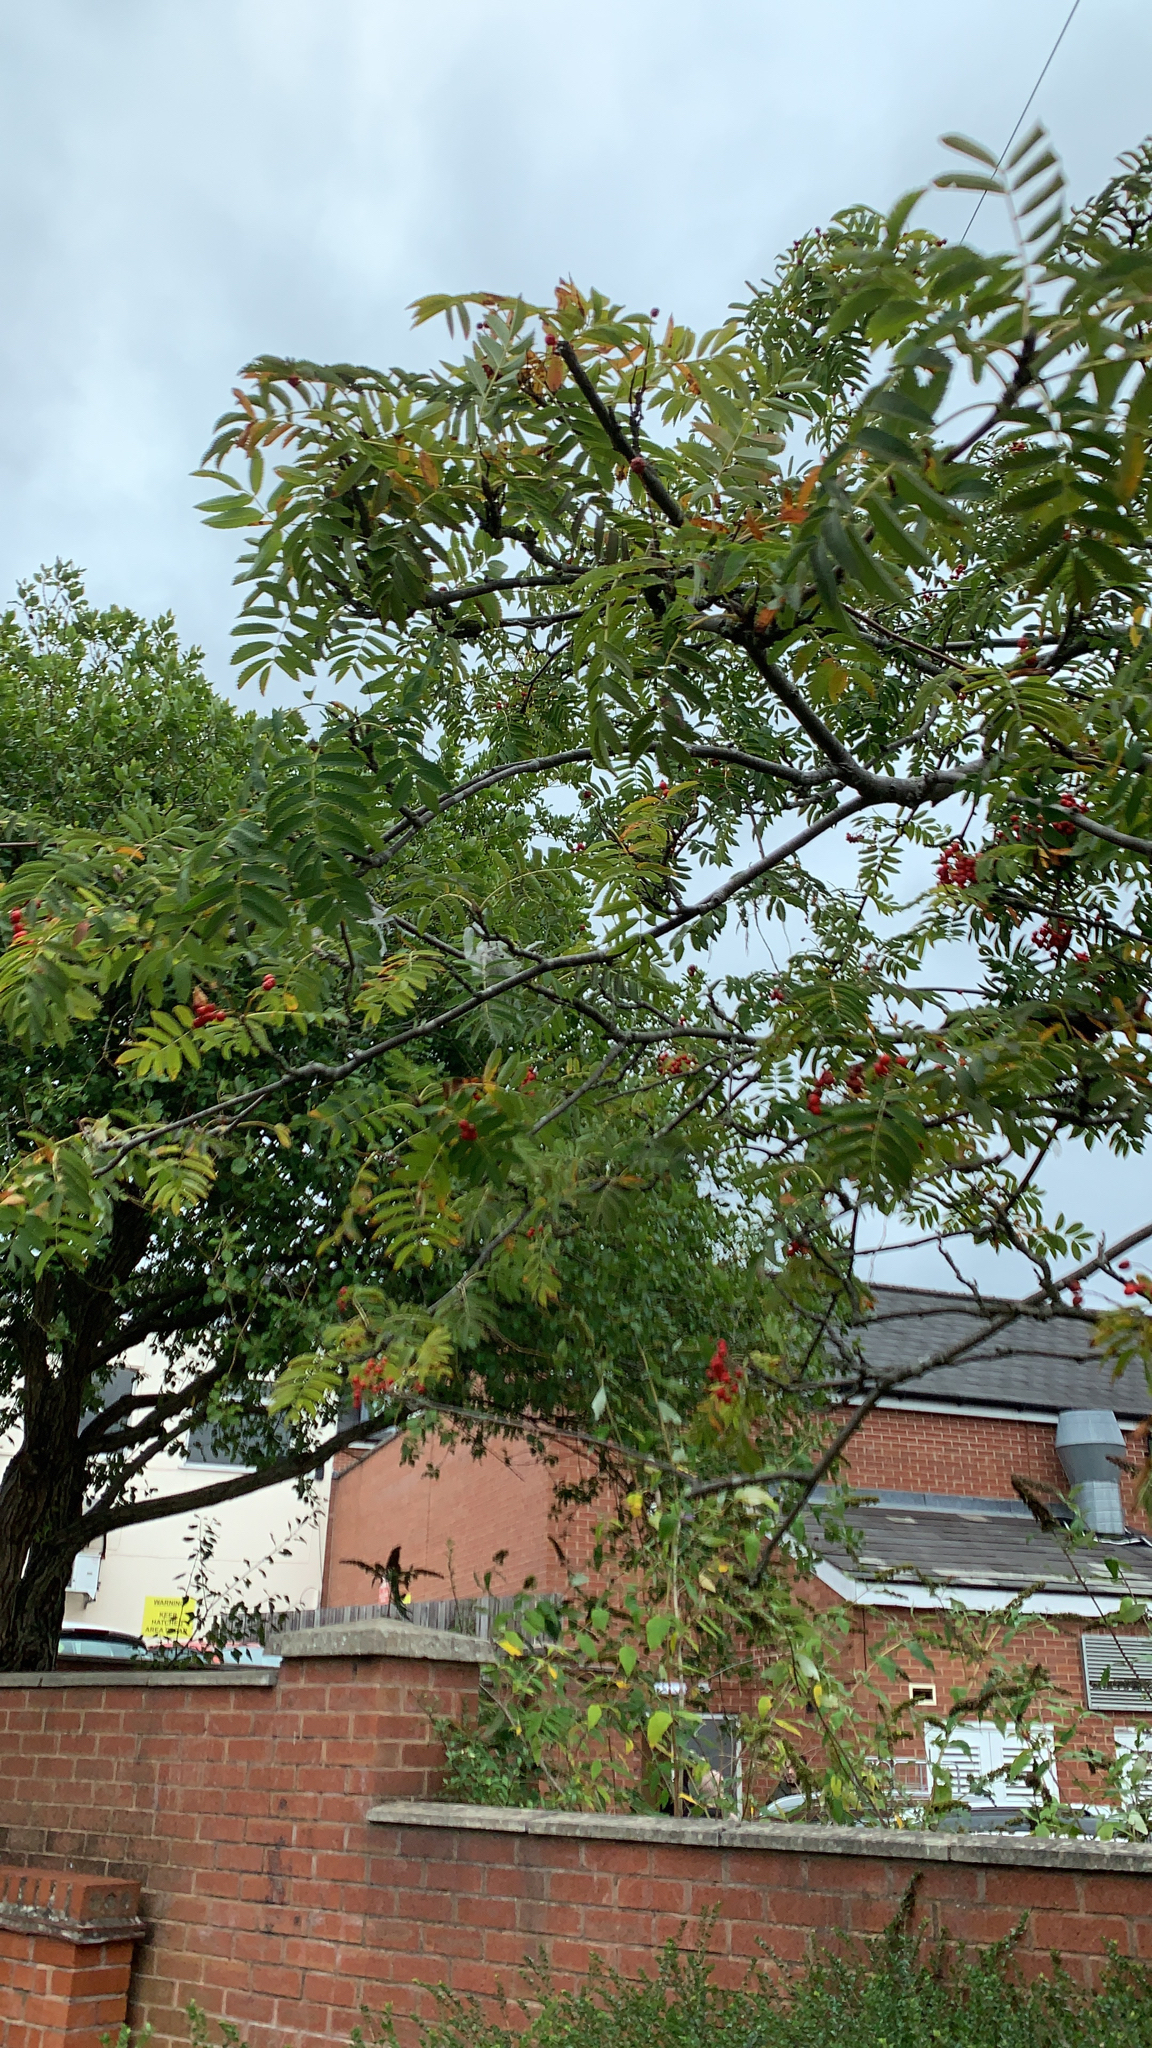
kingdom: Plantae
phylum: Tracheophyta
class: Magnoliopsida
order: Rosales
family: Rosaceae
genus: Sorbus
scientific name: Sorbus aucuparia
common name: Rowan
